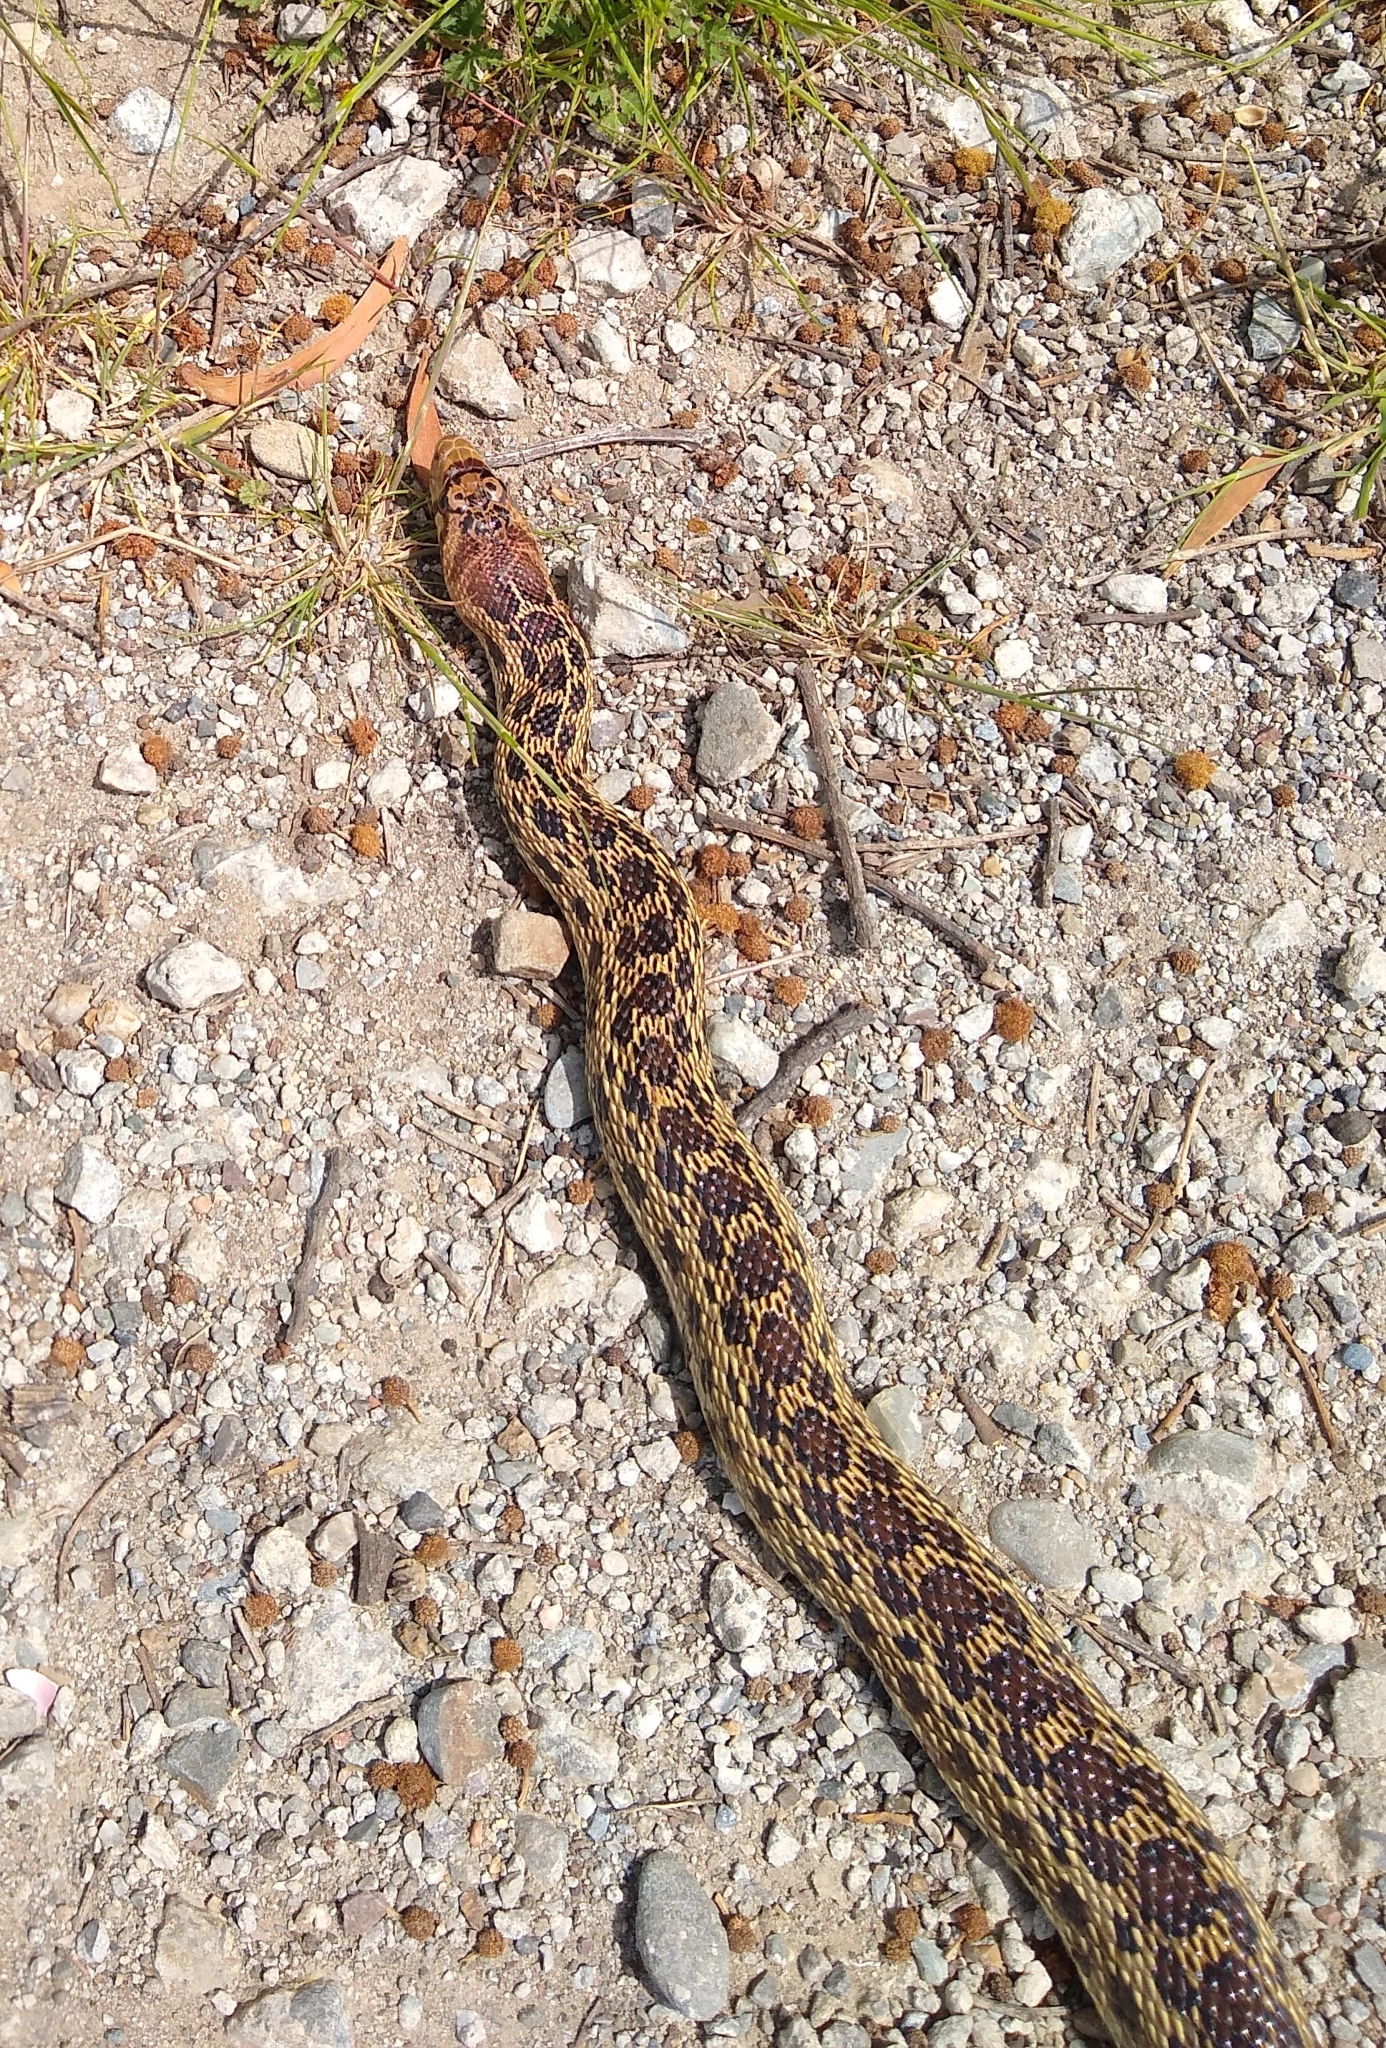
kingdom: Animalia
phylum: Chordata
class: Squamata
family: Colubridae
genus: Pituophis
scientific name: Pituophis catenifer
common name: Gopher snake
